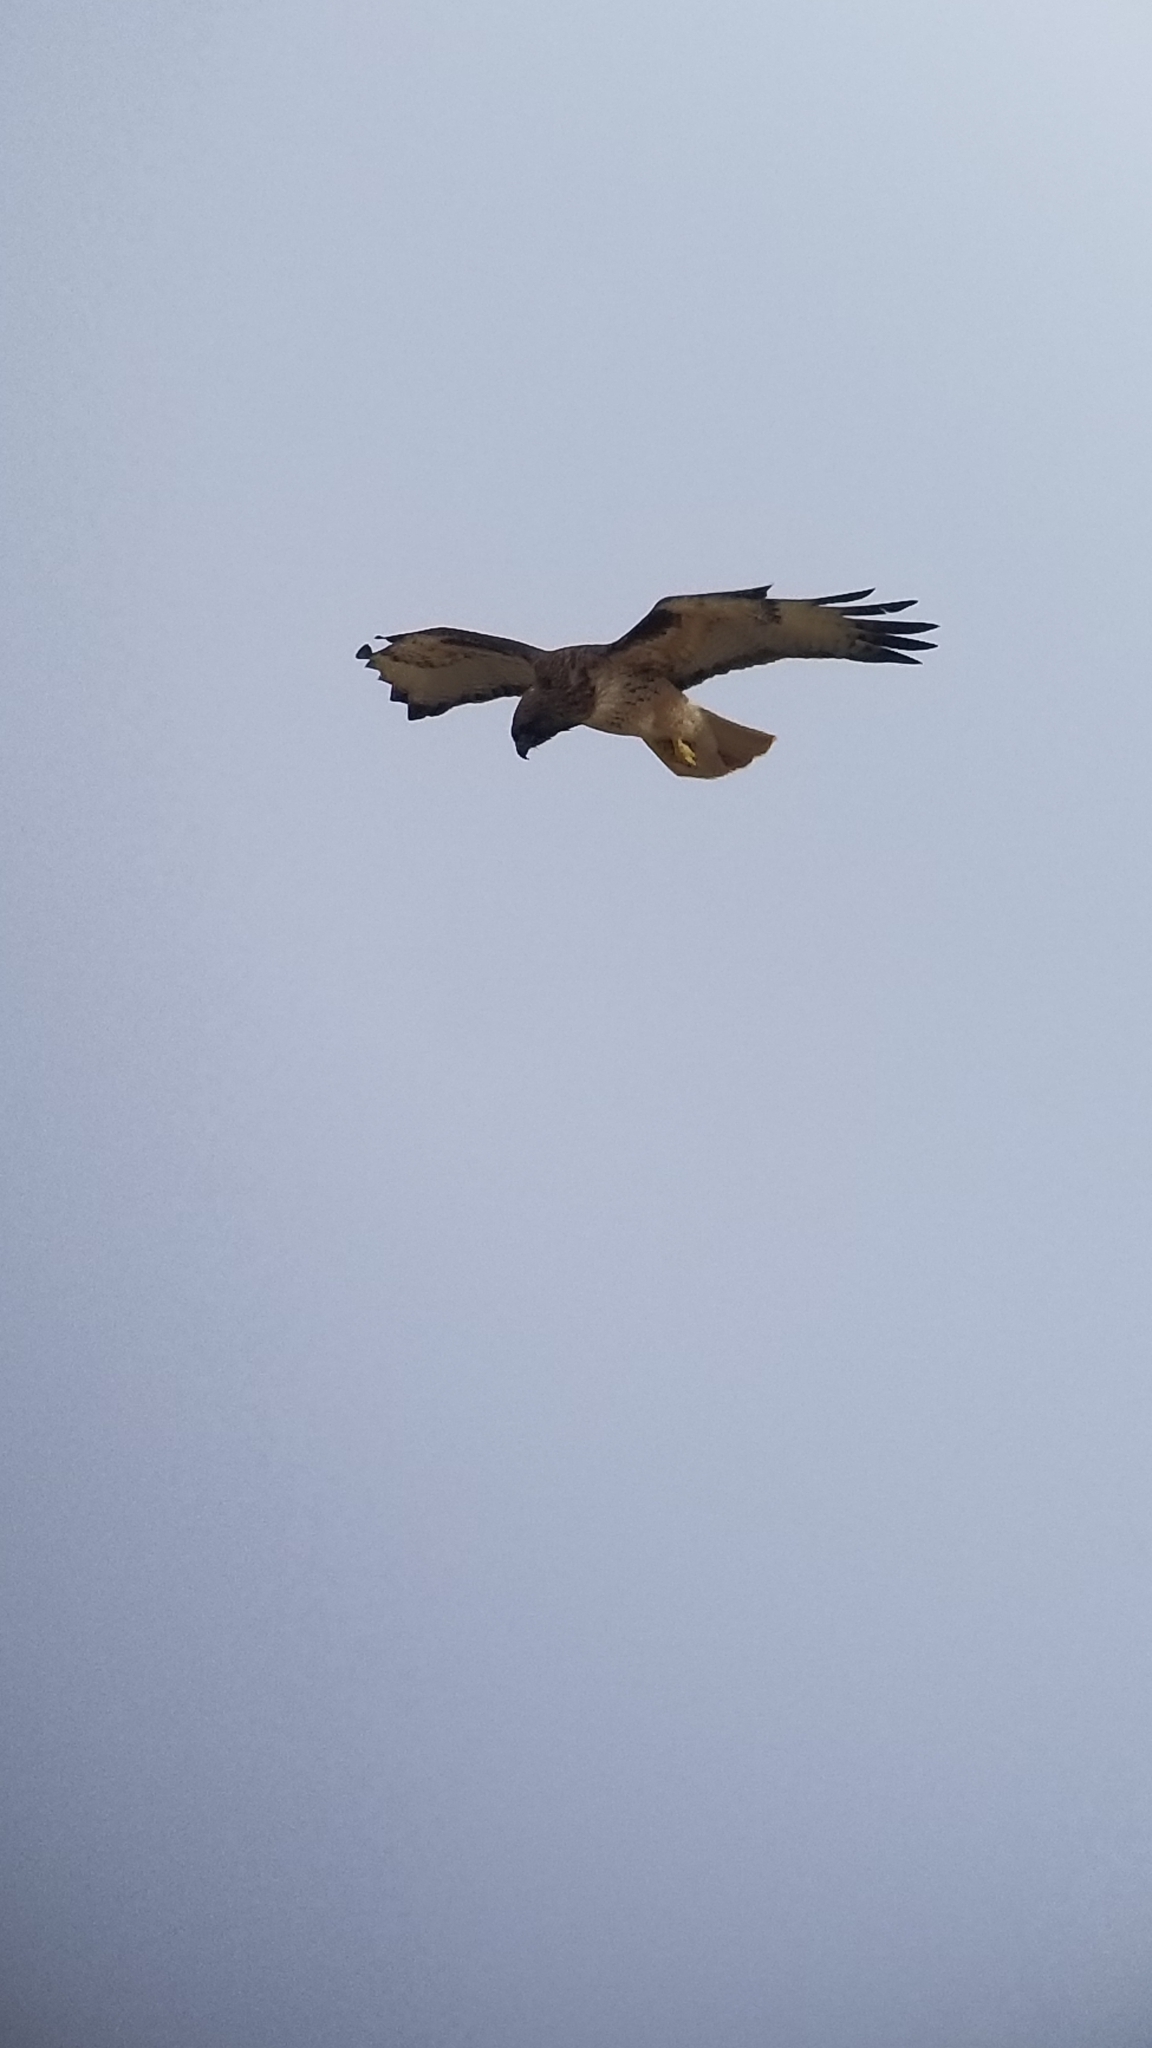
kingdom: Animalia
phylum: Chordata
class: Aves
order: Accipitriformes
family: Accipitridae
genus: Buteo
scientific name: Buteo jamaicensis
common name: Red-tailed hawk
